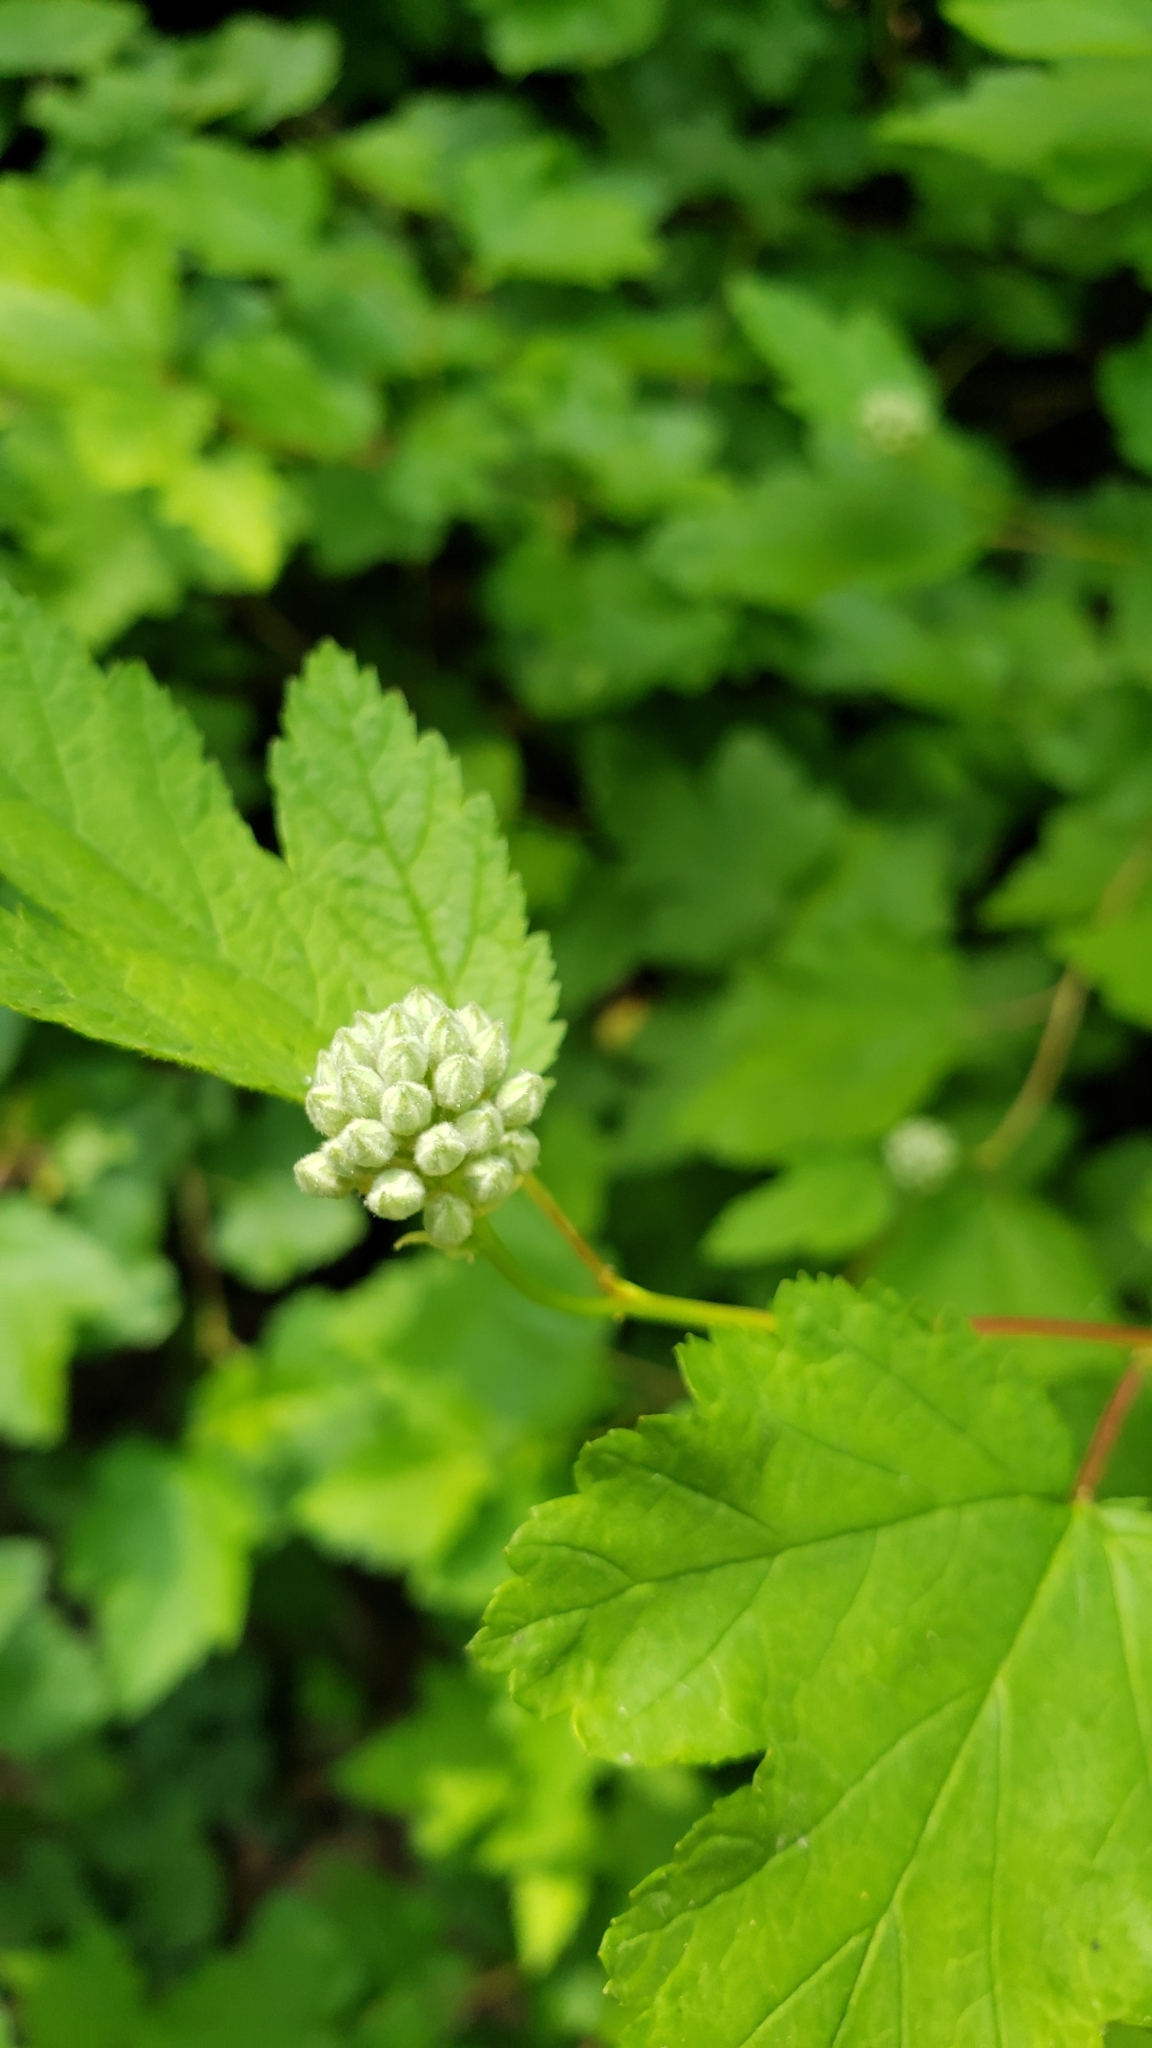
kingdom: Plantae
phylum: Tracheophyta
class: Magnoliopsida
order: Rosales
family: Rosaceae
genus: Physocarpus
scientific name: Physocarpus capitatus
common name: Pacific ninebark
